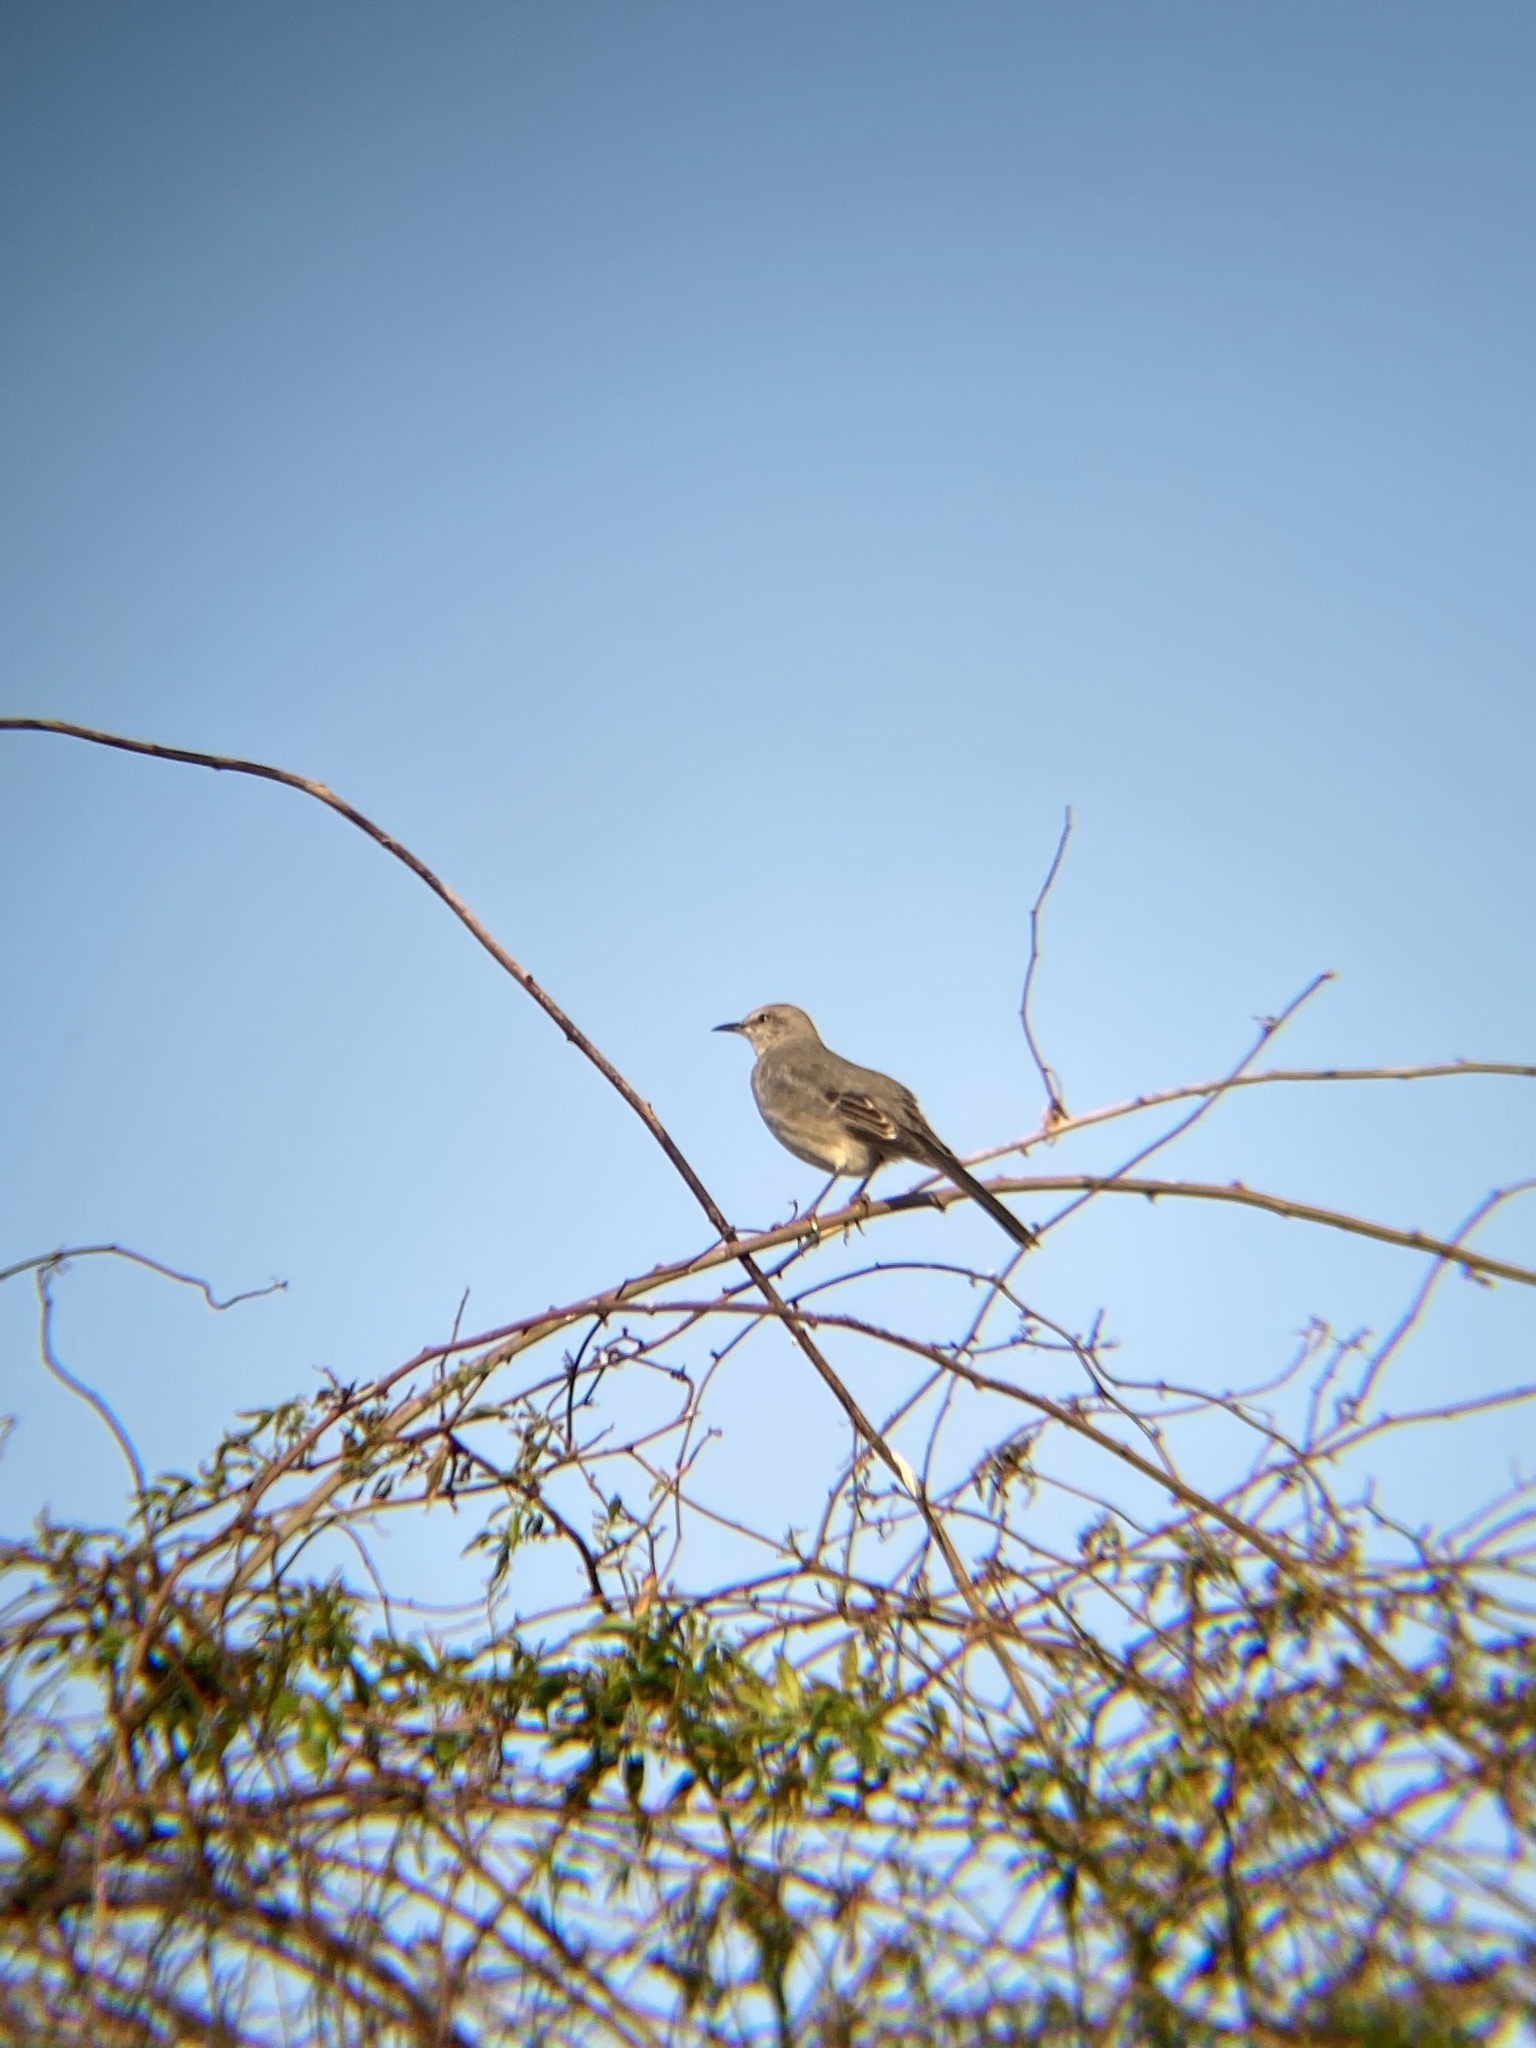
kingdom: Animalia
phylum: Chordata
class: Aves
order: Passeriformes
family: Mimidae
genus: Mimus
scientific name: Mimus polyglottos
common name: Northern mockingbird
